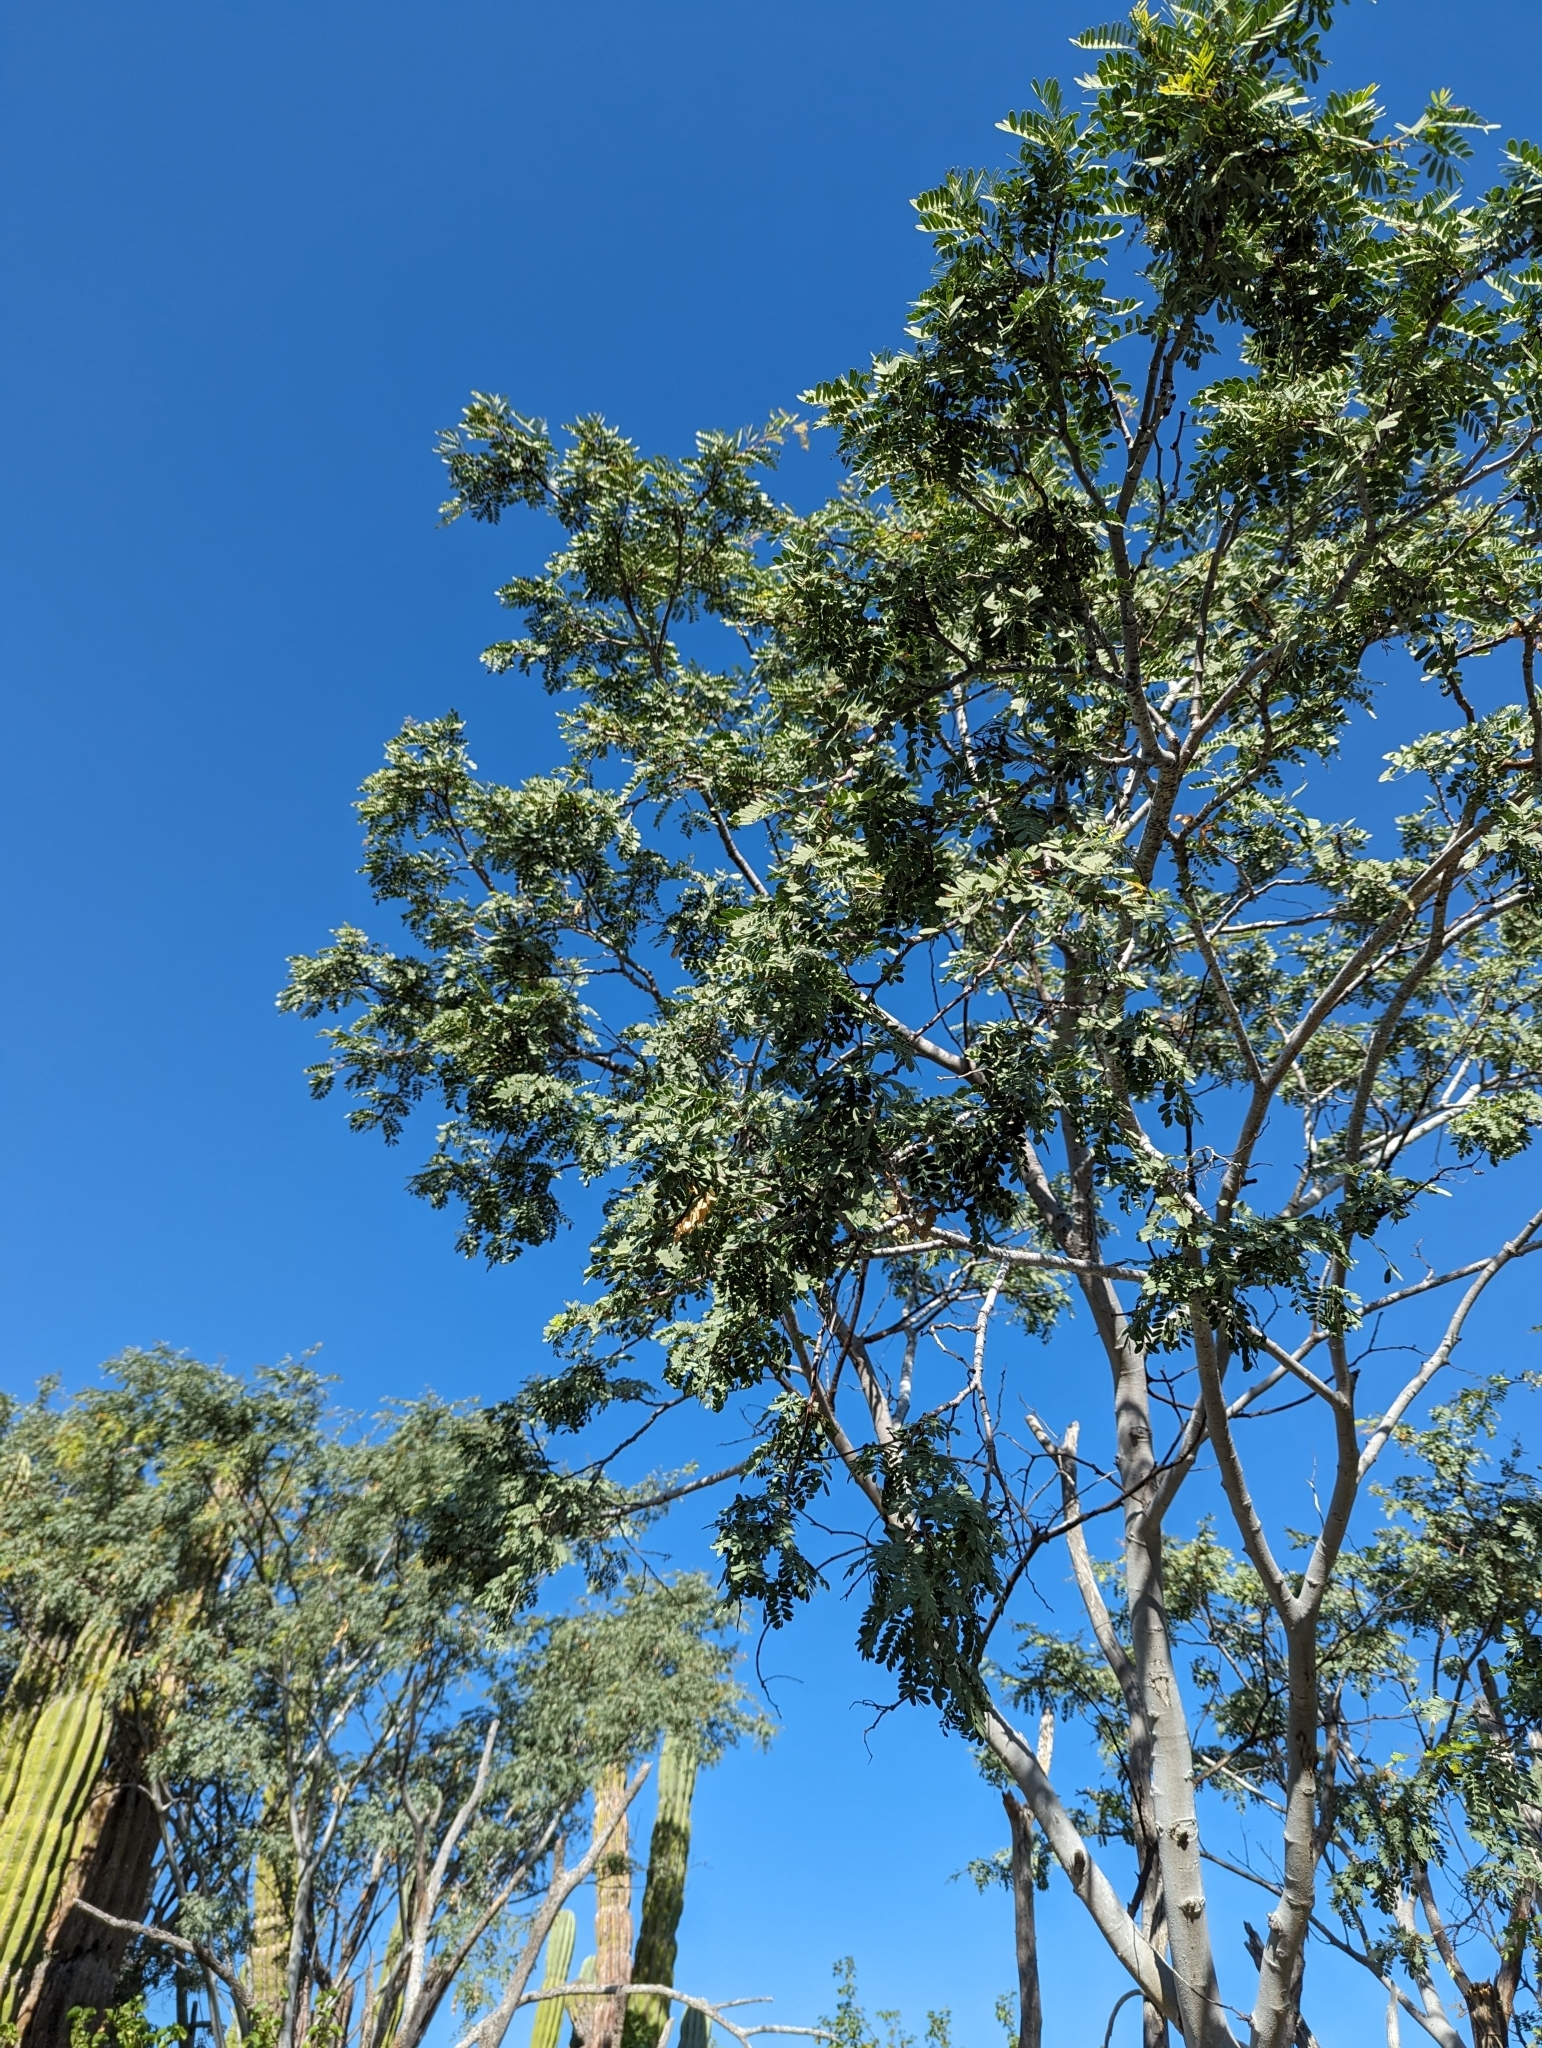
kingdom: Plantae
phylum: Tracheophyta
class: Magnoliopsida
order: Fabales
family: Fabaceae
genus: Lysiloma
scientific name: Lysiloma candidum
